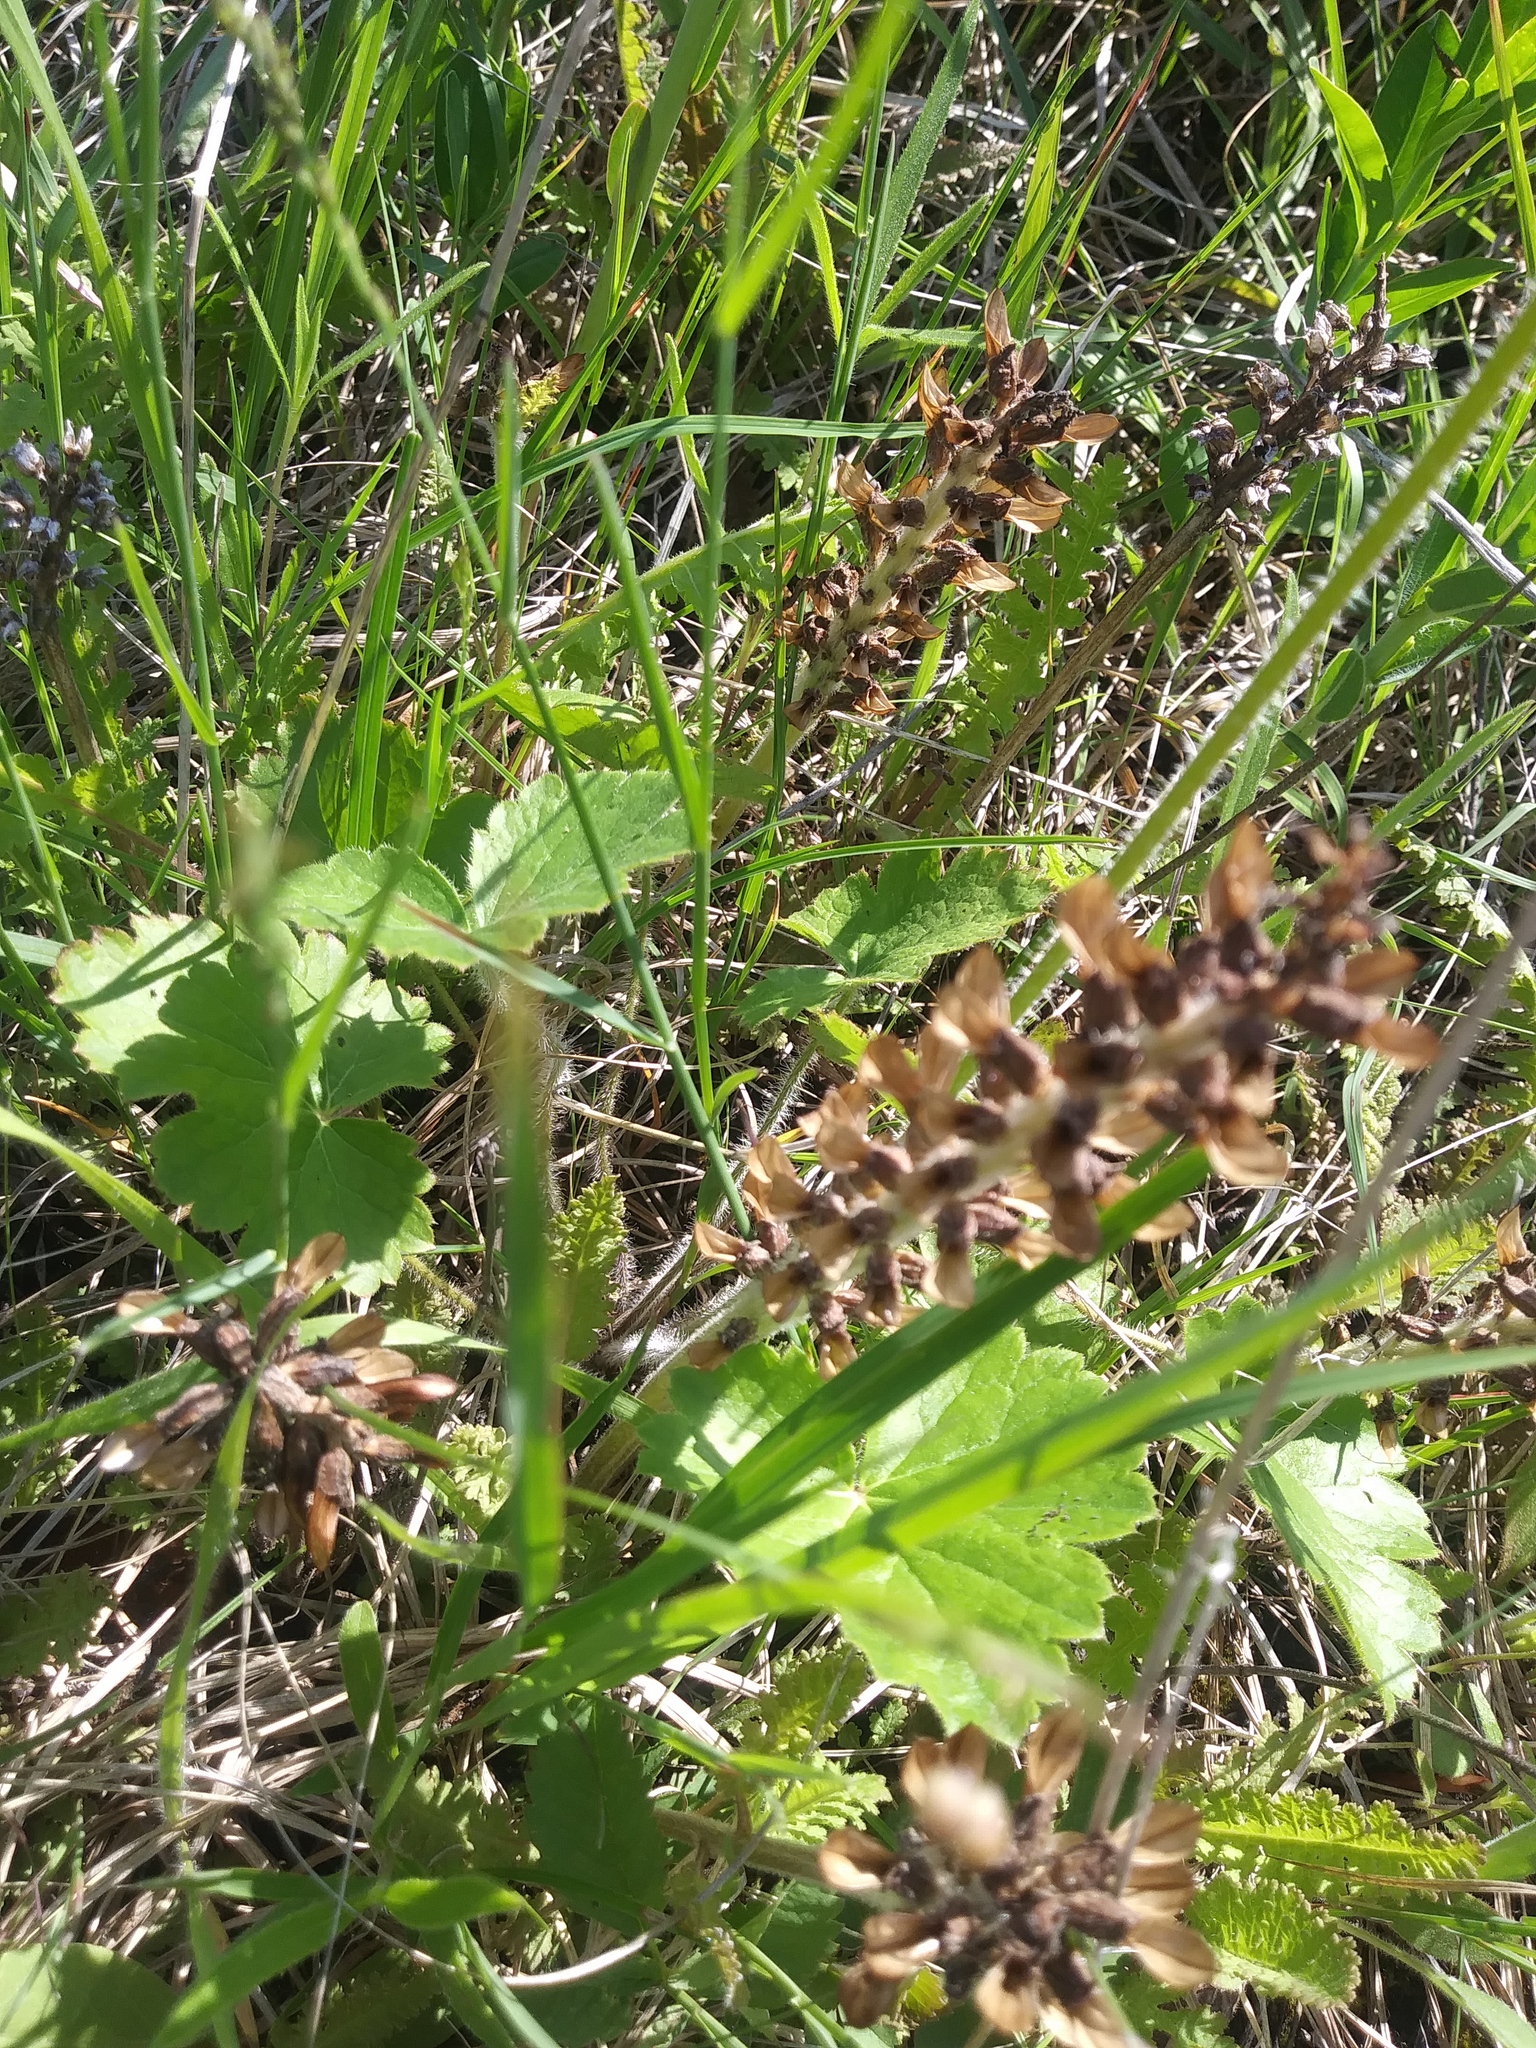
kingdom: Plantae
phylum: Tracheophyta
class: Magnoliopsida
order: Saxifragales
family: Saxifragaceae
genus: Heuchera
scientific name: Heuchera richardsonii
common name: Richardson's alumroot
